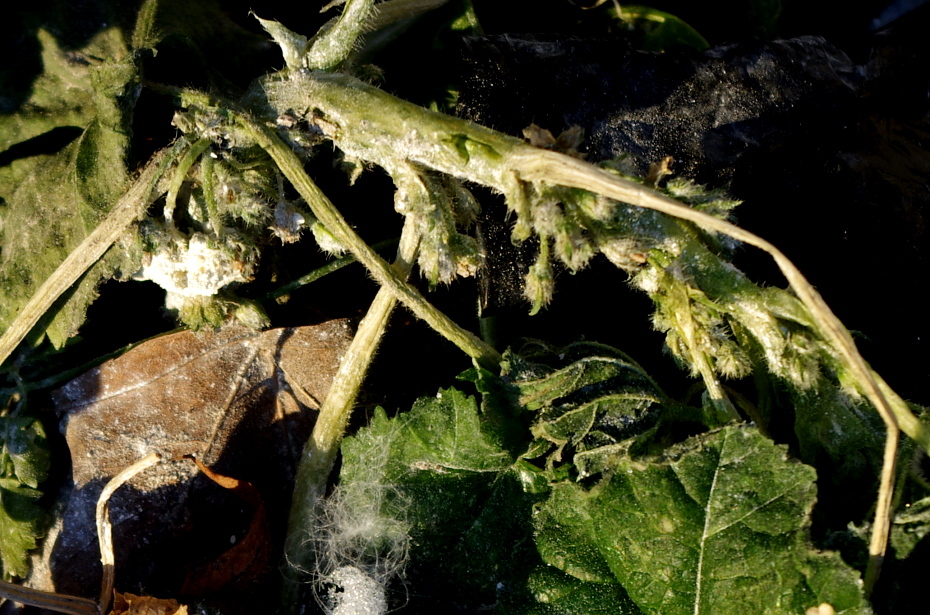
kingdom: Plantae
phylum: Tracheophyta
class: Magnoliopsida
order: Malvales
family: Malvaceae
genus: Malva
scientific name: Malva pusilla
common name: Small mallow
